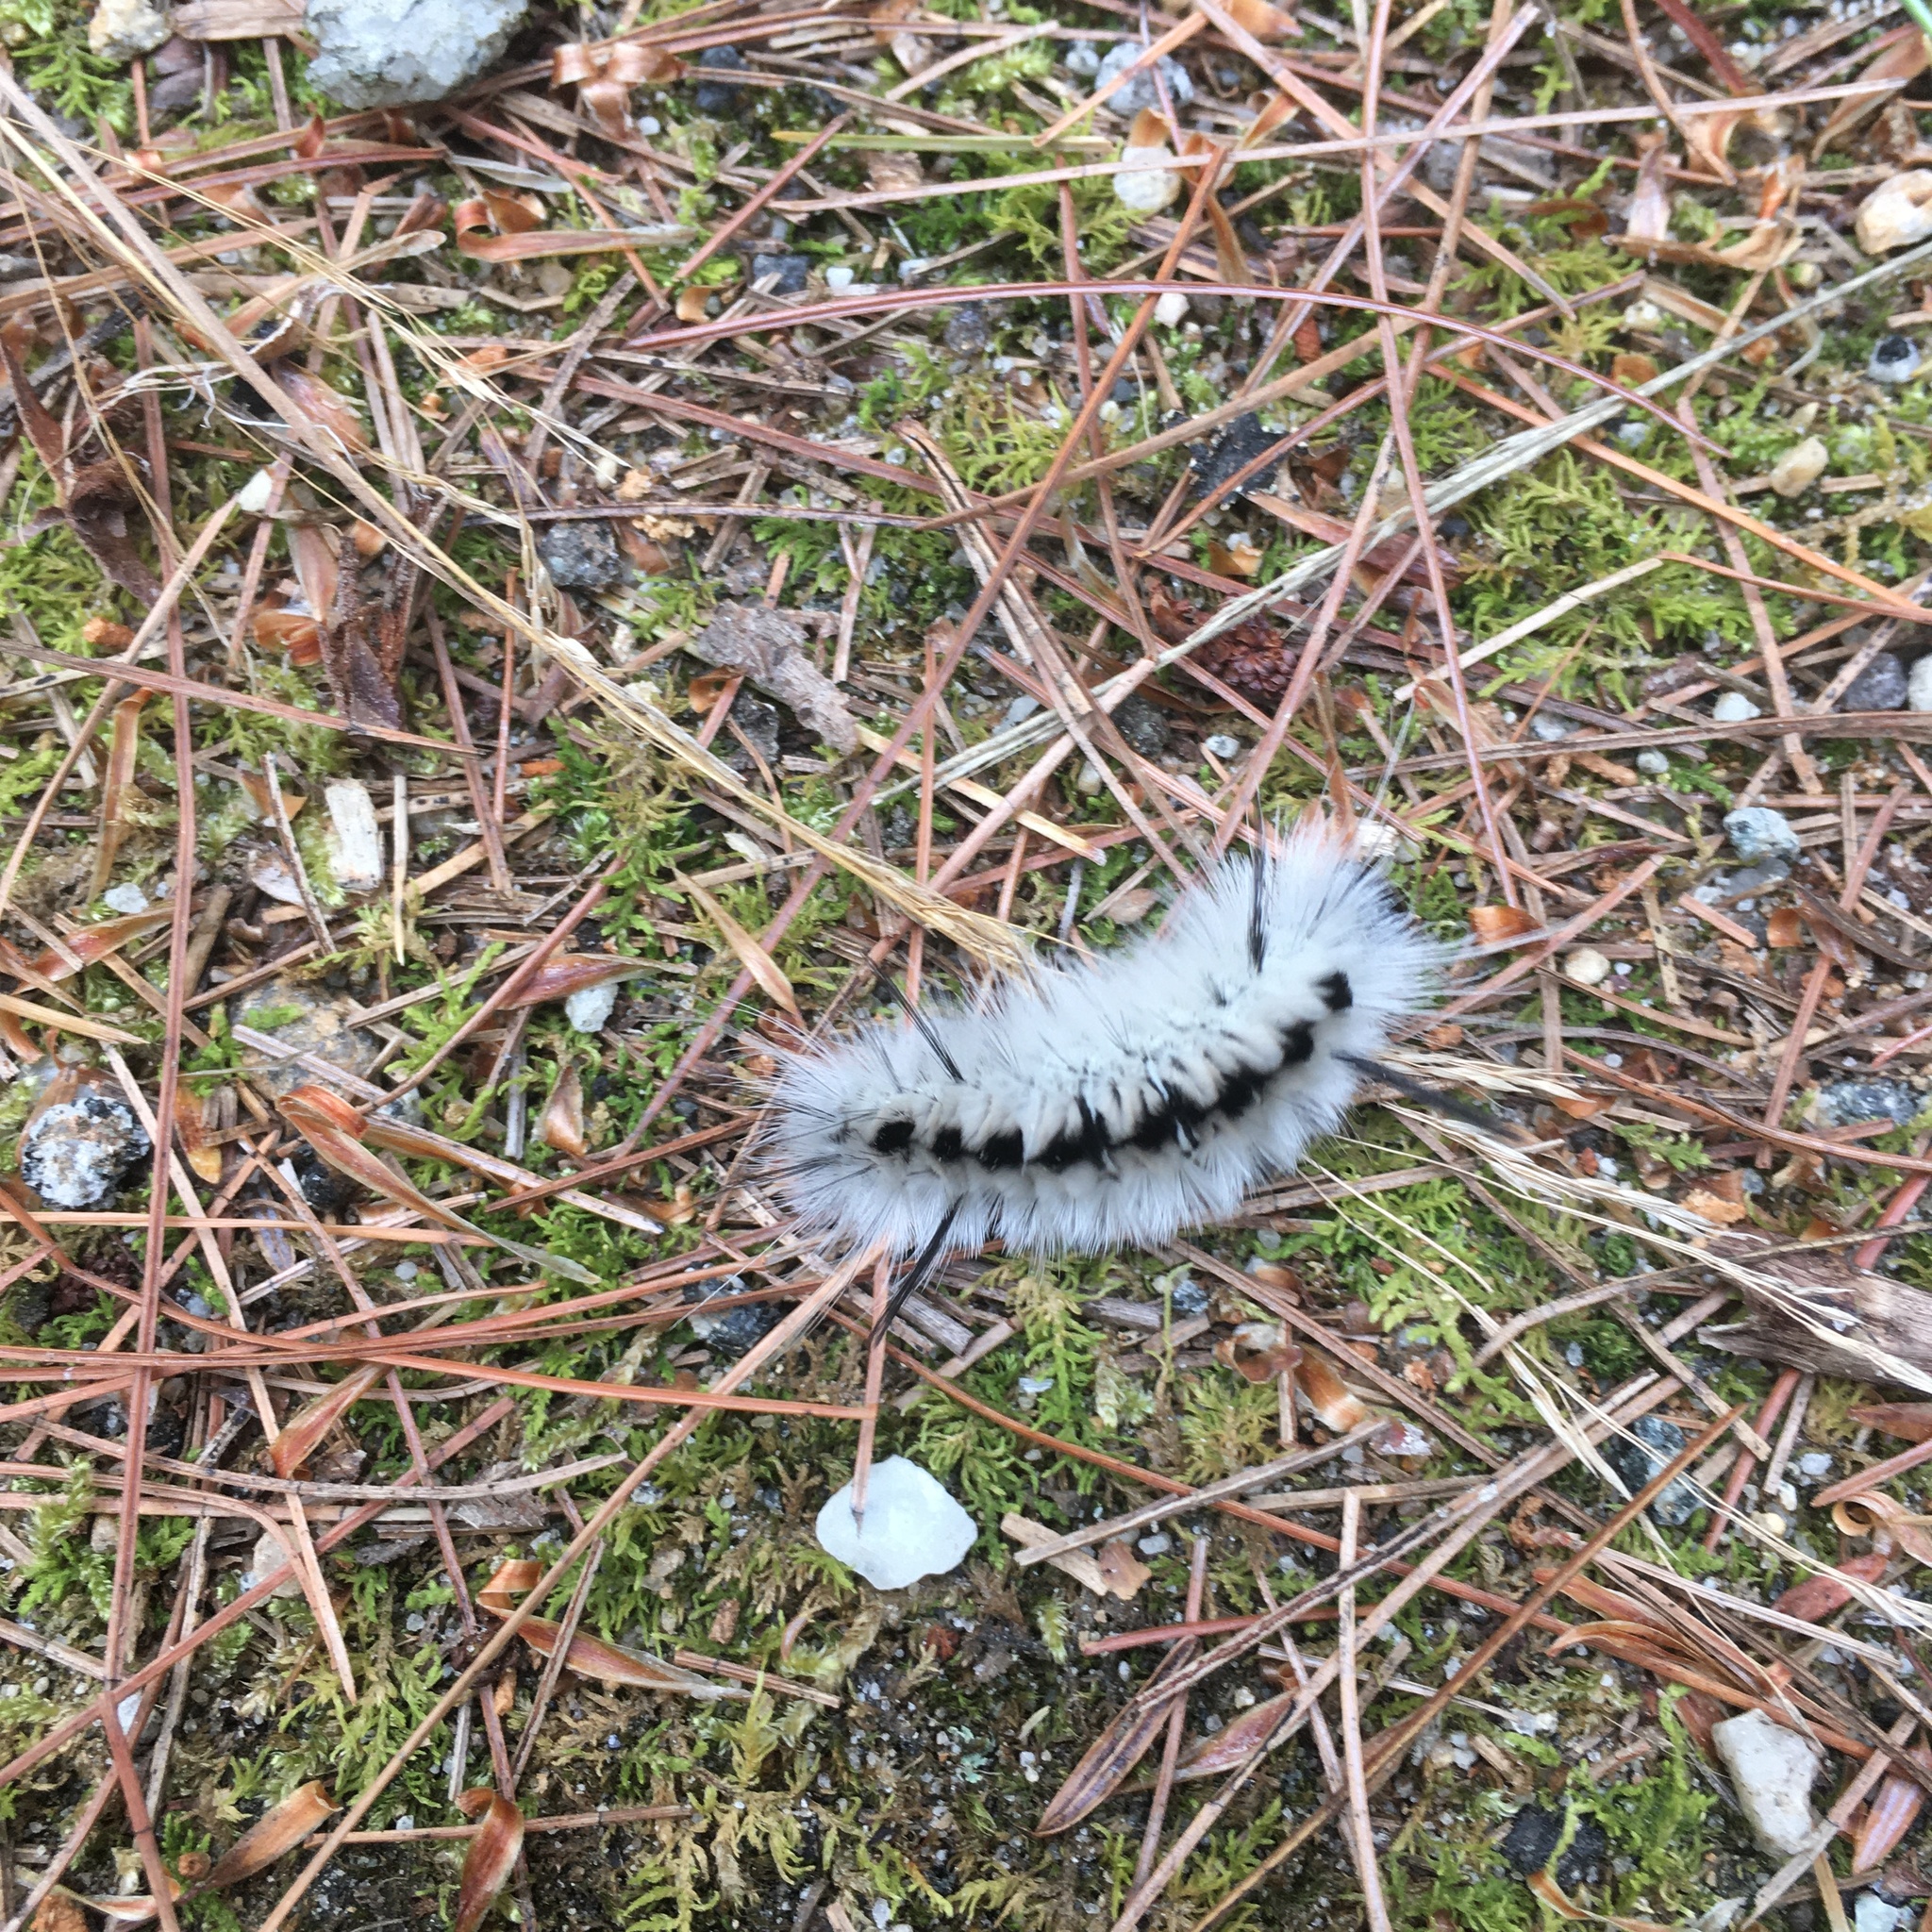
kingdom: Animalia
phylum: Arthropoda
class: Insecta
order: Lepidoptera
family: Erebidae
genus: Lophocampa
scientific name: Lophocampa caryae
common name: Hickory tussock moth
